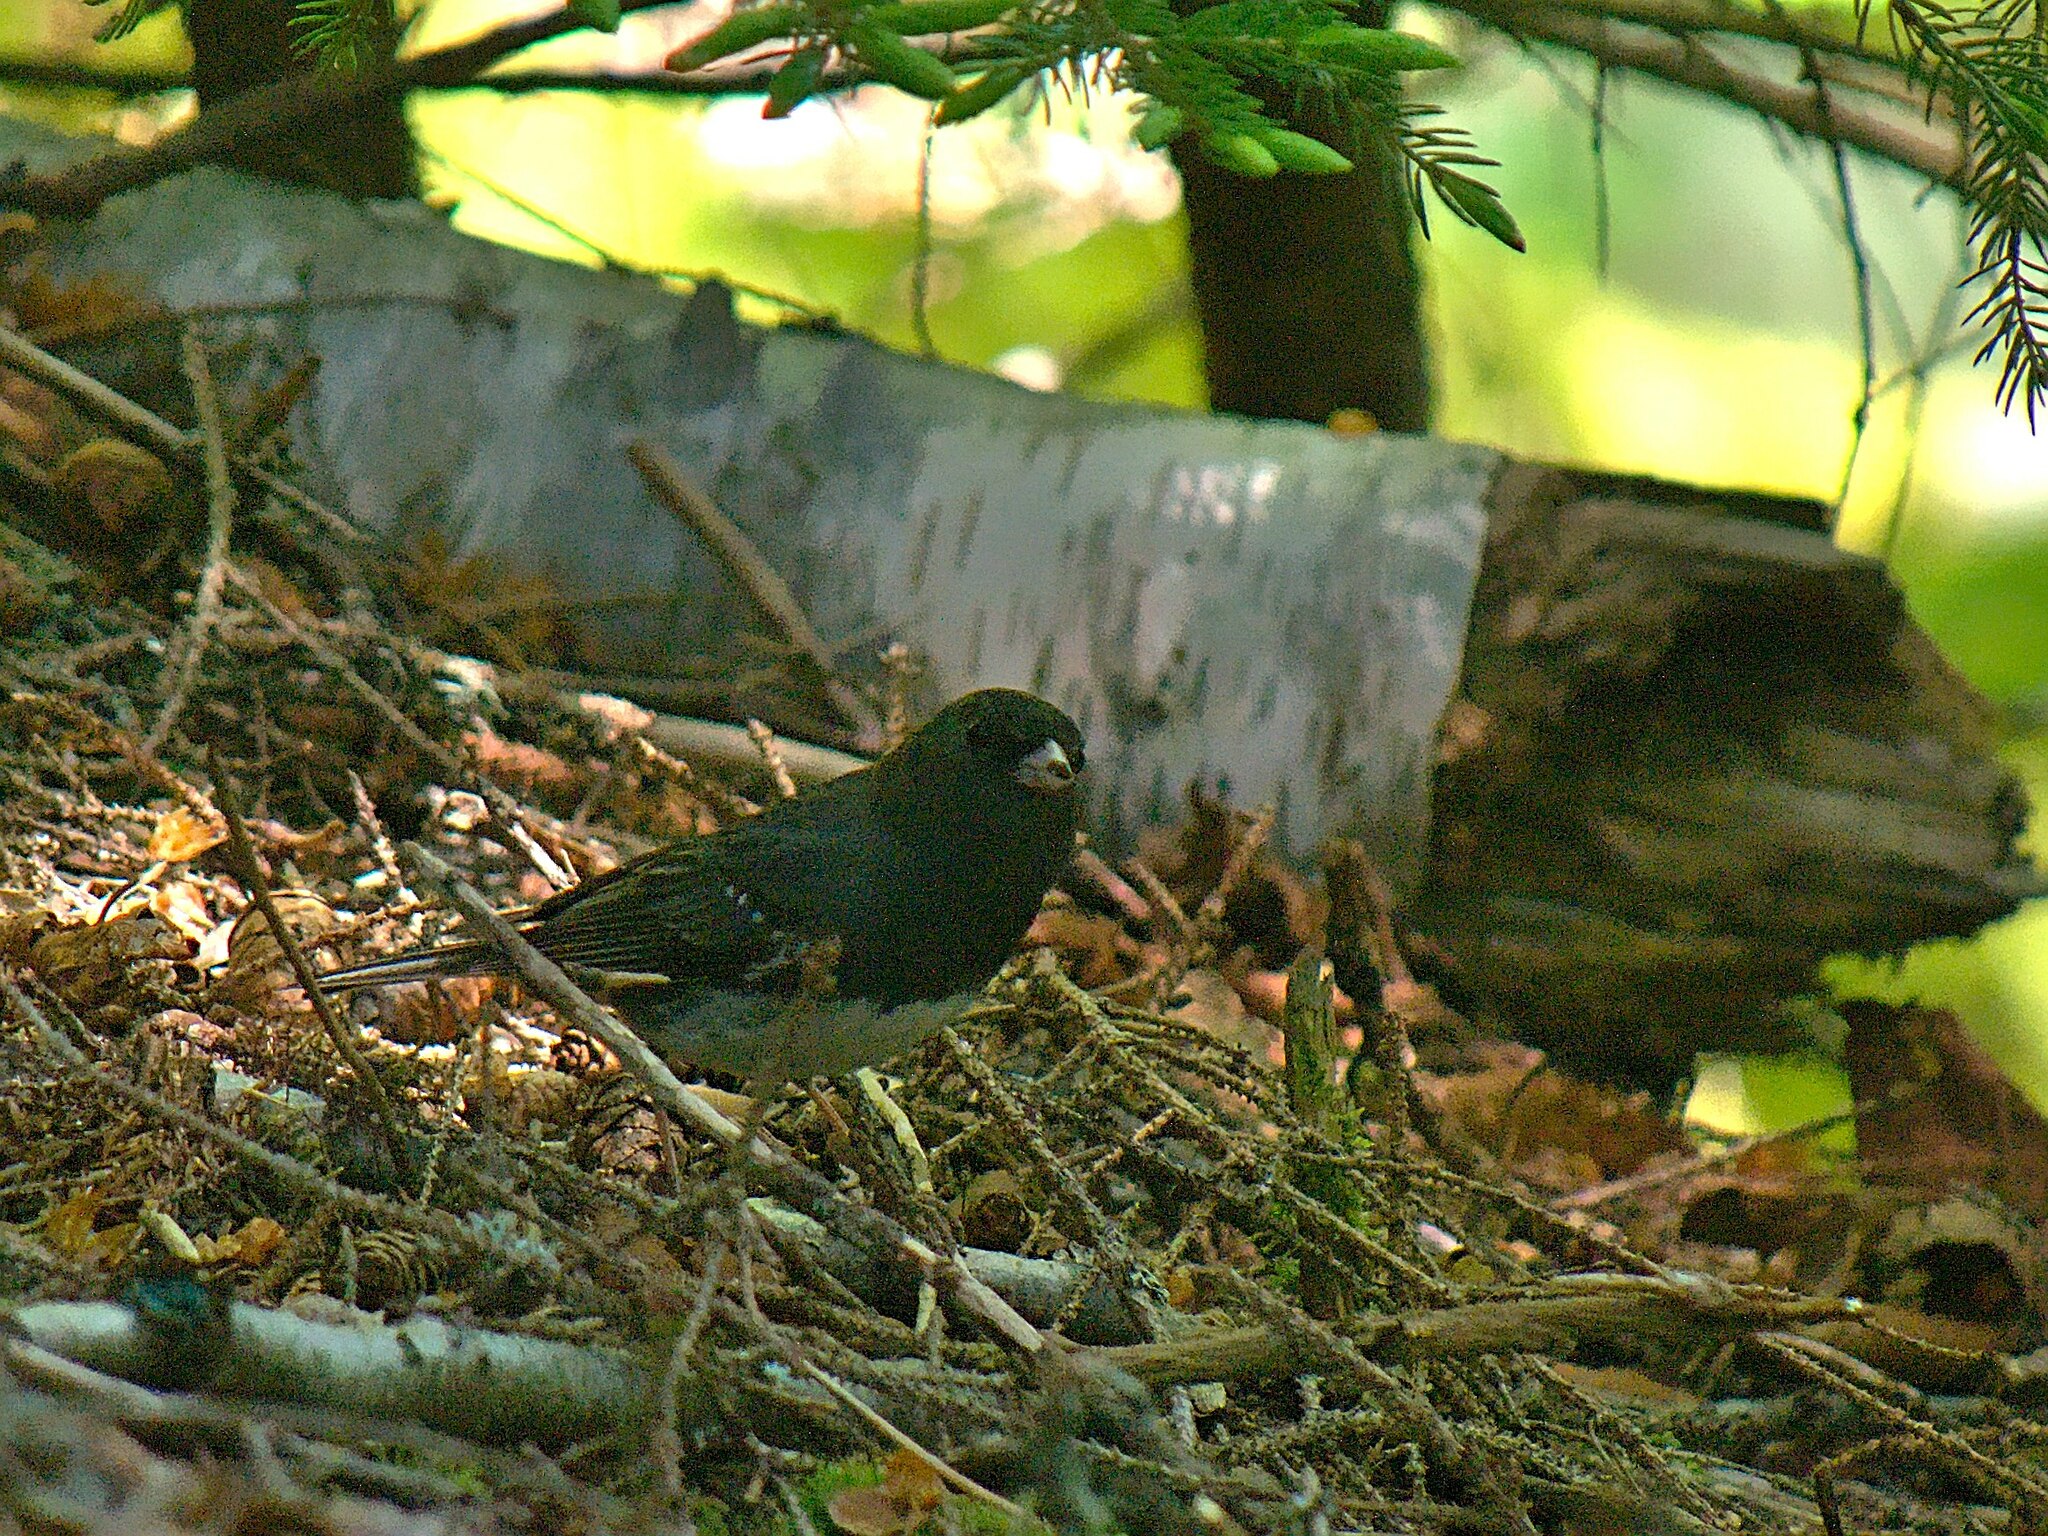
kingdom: Animalia
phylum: Chordata
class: Aves
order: Passeriformes
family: Passerellidae
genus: Junco
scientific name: Junco hyemalis
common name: Dark-eyed junco
